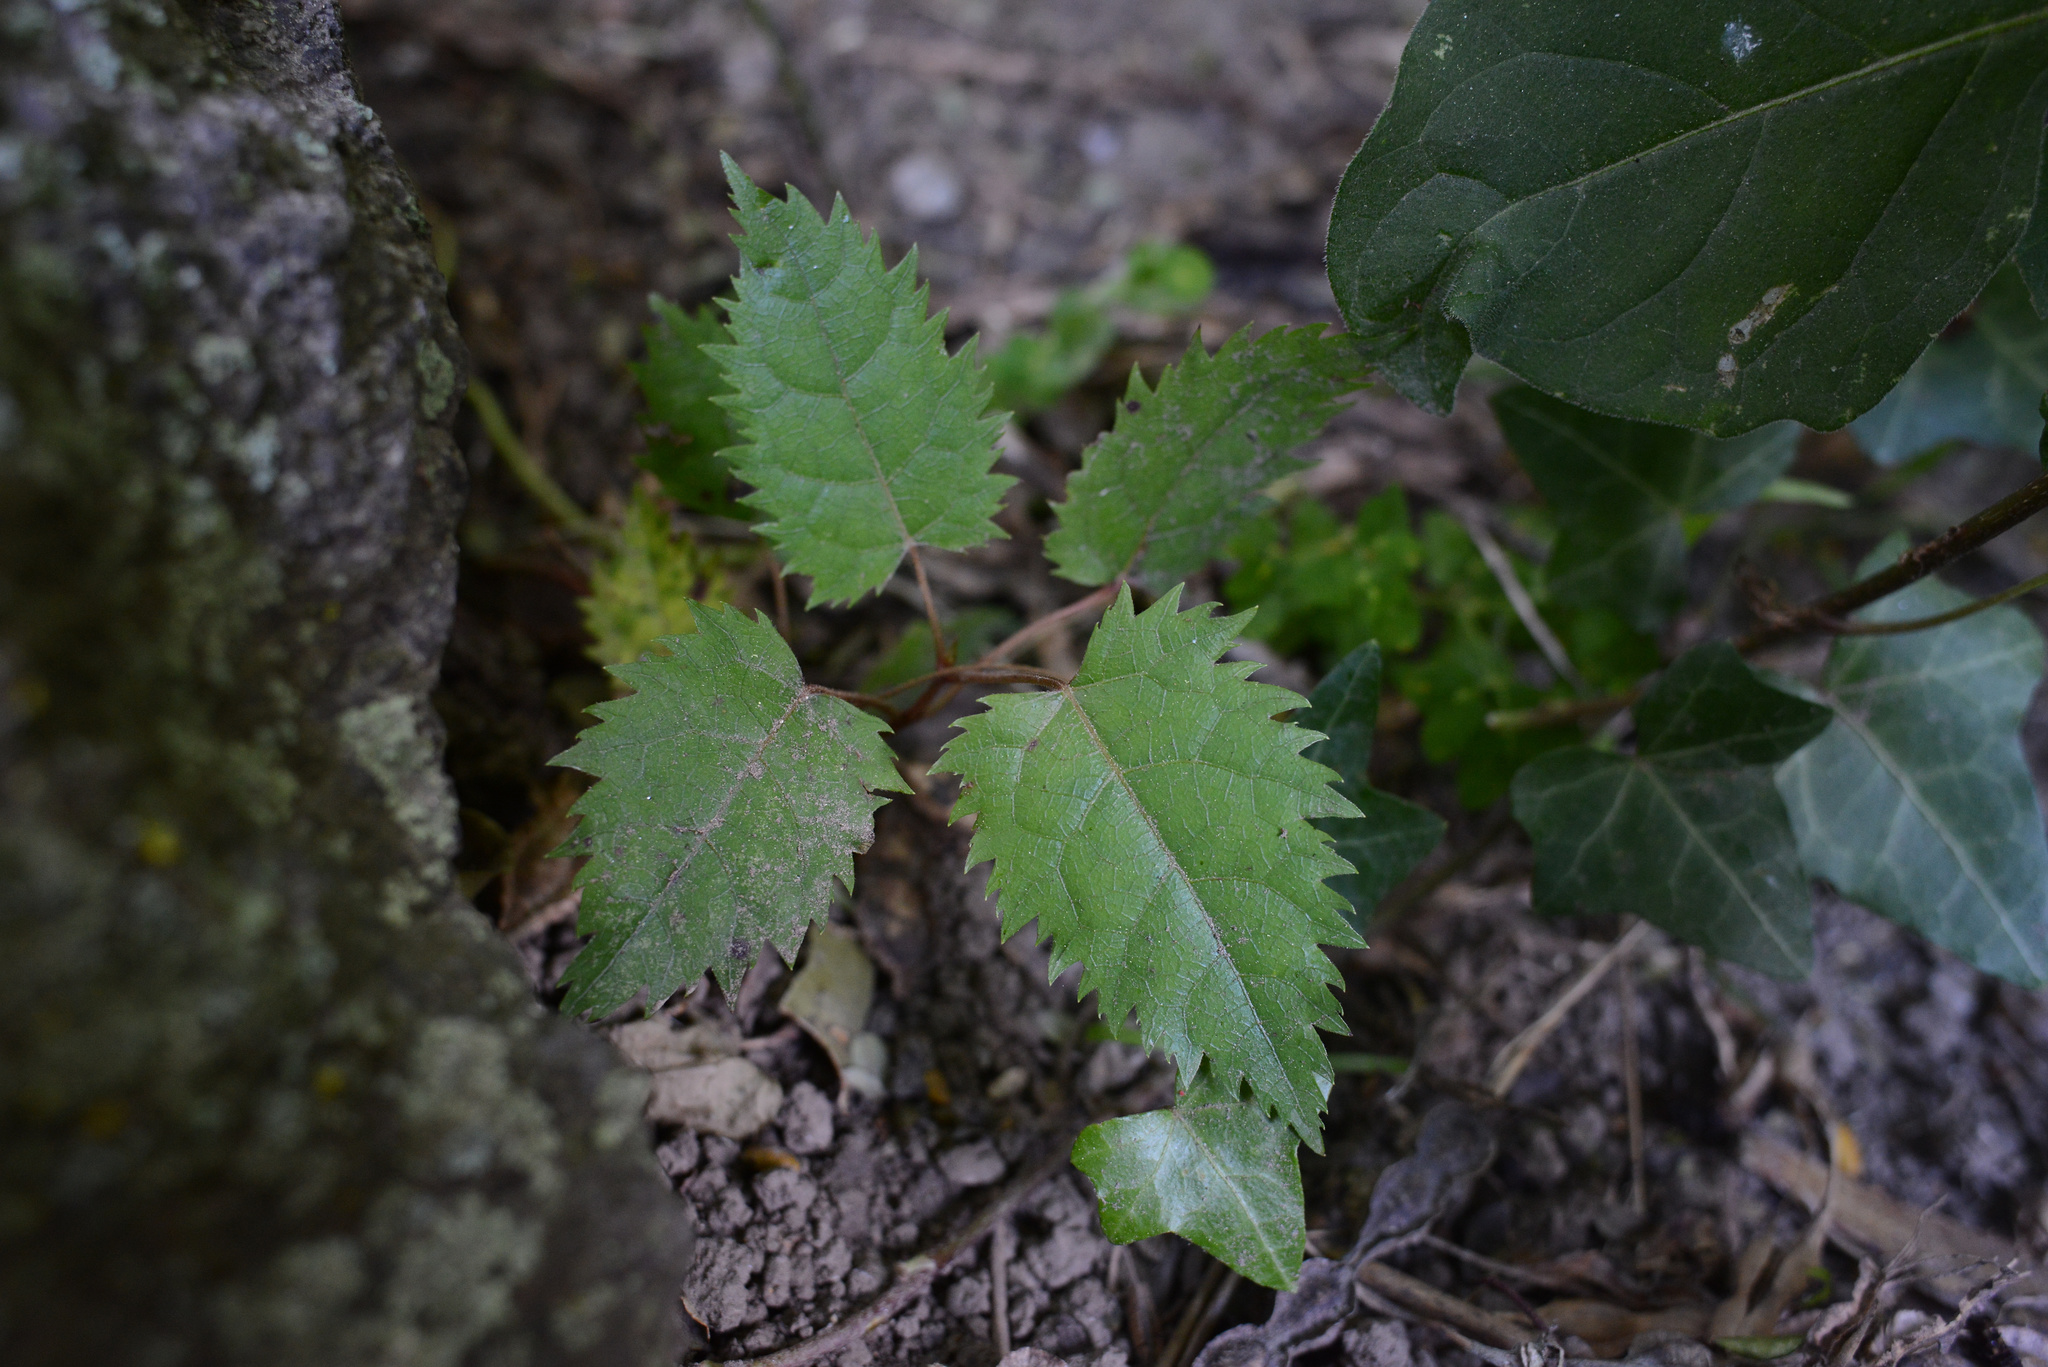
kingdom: Plantae
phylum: Tracheophyta
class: Magnoliopsida
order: Oxalidales
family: Elaeocarpaceae
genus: Aristotelia
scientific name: Aristotelia serrata
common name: New zealand wineberry
